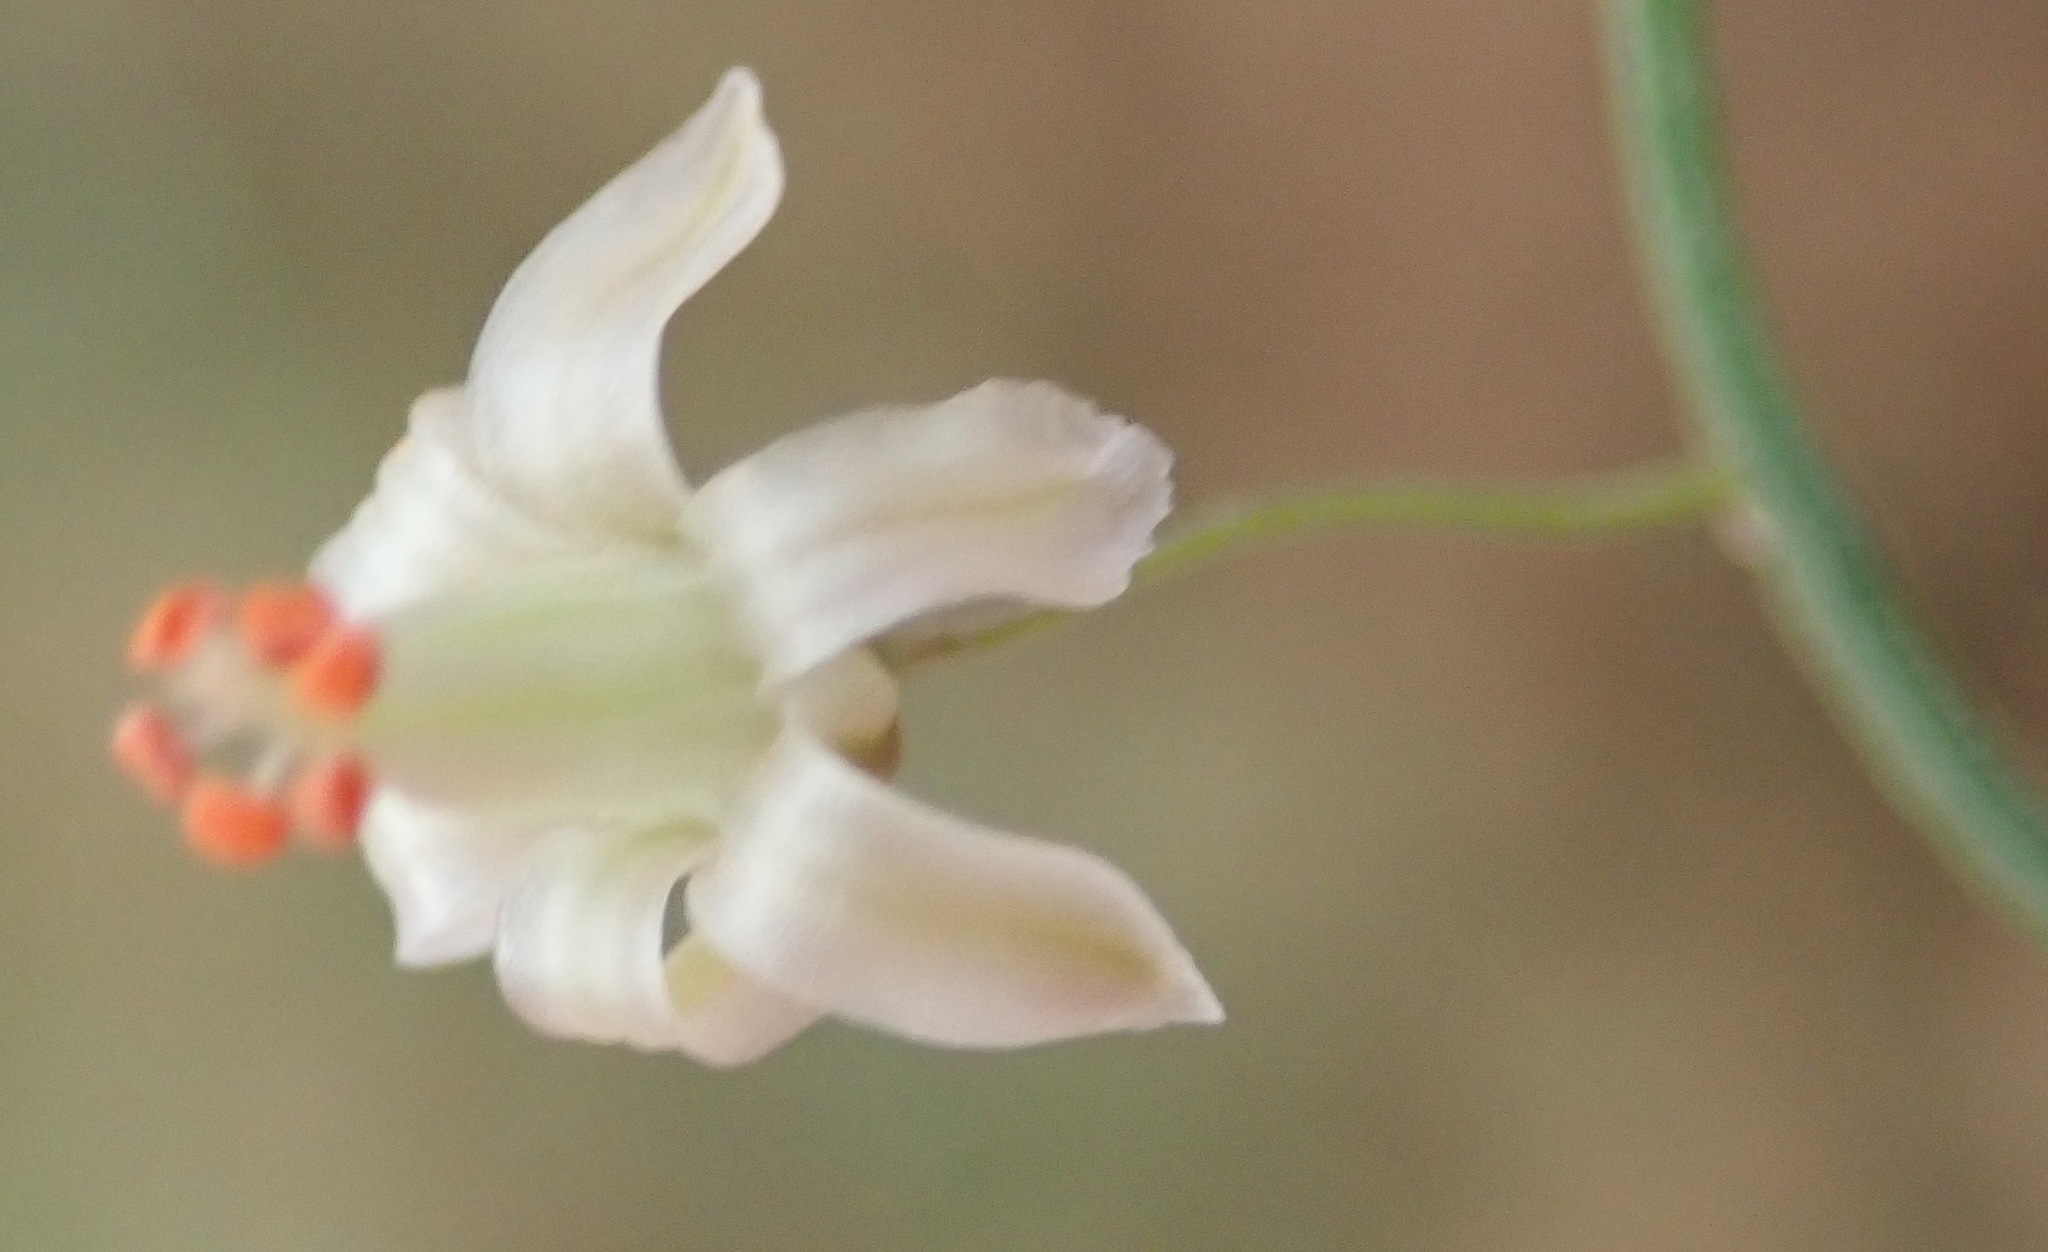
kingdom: Plantae
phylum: Tracheophyta
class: Liliopsida
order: Asparagales
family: Asparagaceae
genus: Asparagus
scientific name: Asparagus declinatus
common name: Bridal-creeper
